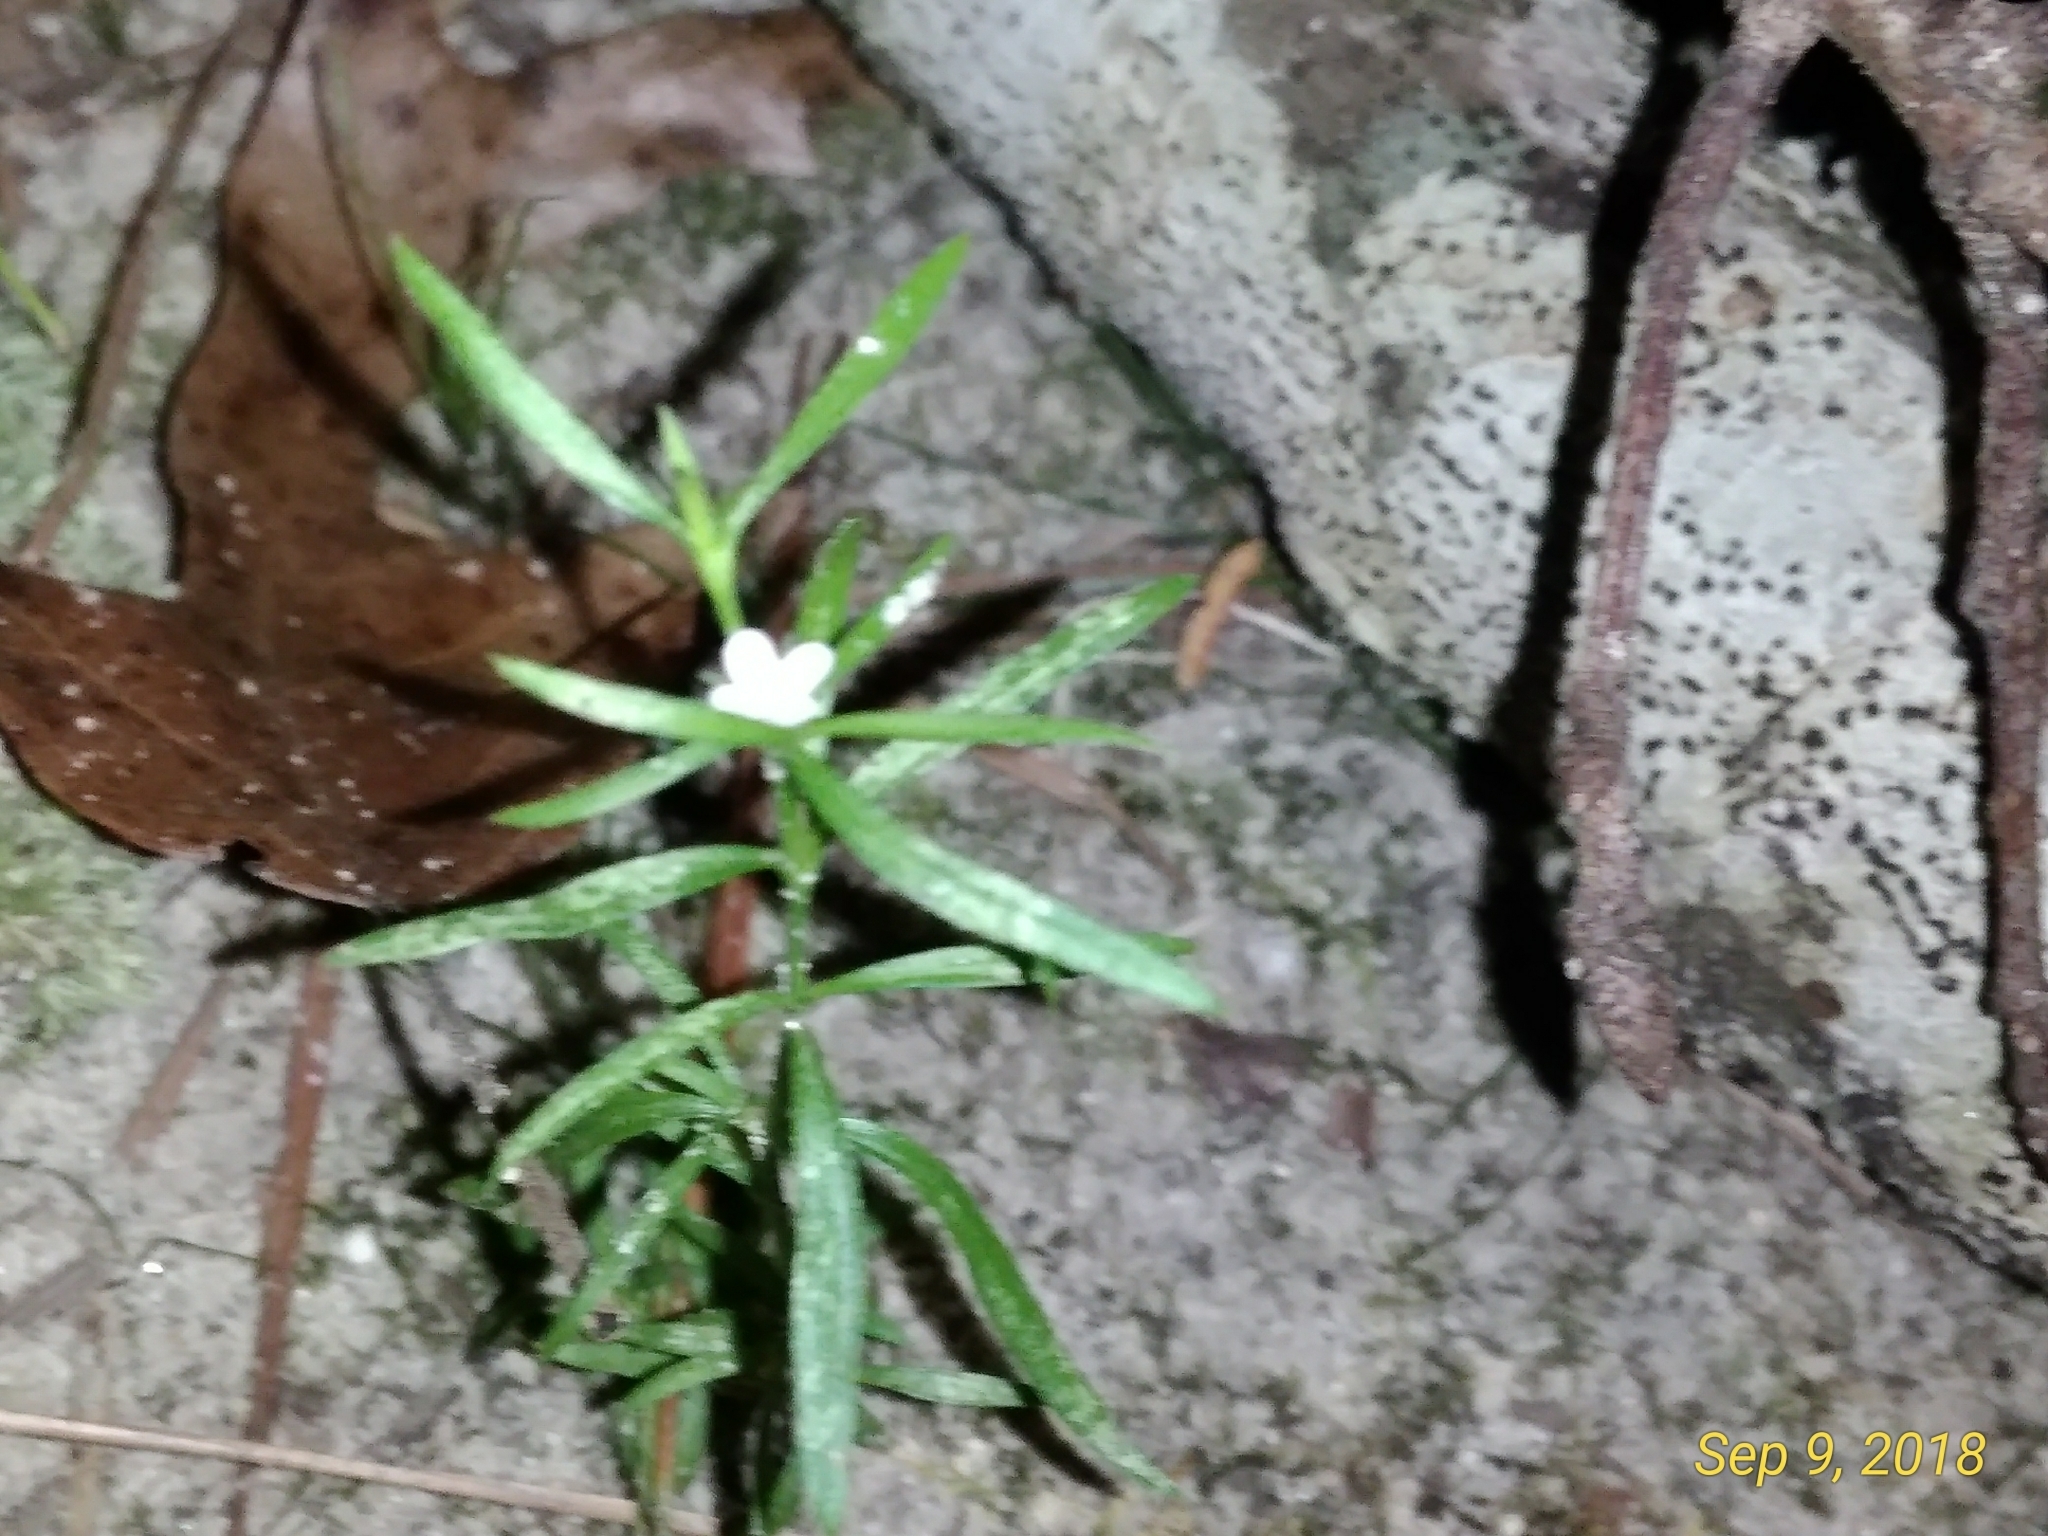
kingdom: Plantae
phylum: Tracheophyta
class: Magnoliopsida
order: Lamiales
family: Tetrachondraceae
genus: Polypremum
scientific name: Polypremum procumbens
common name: Juniper-leaf
